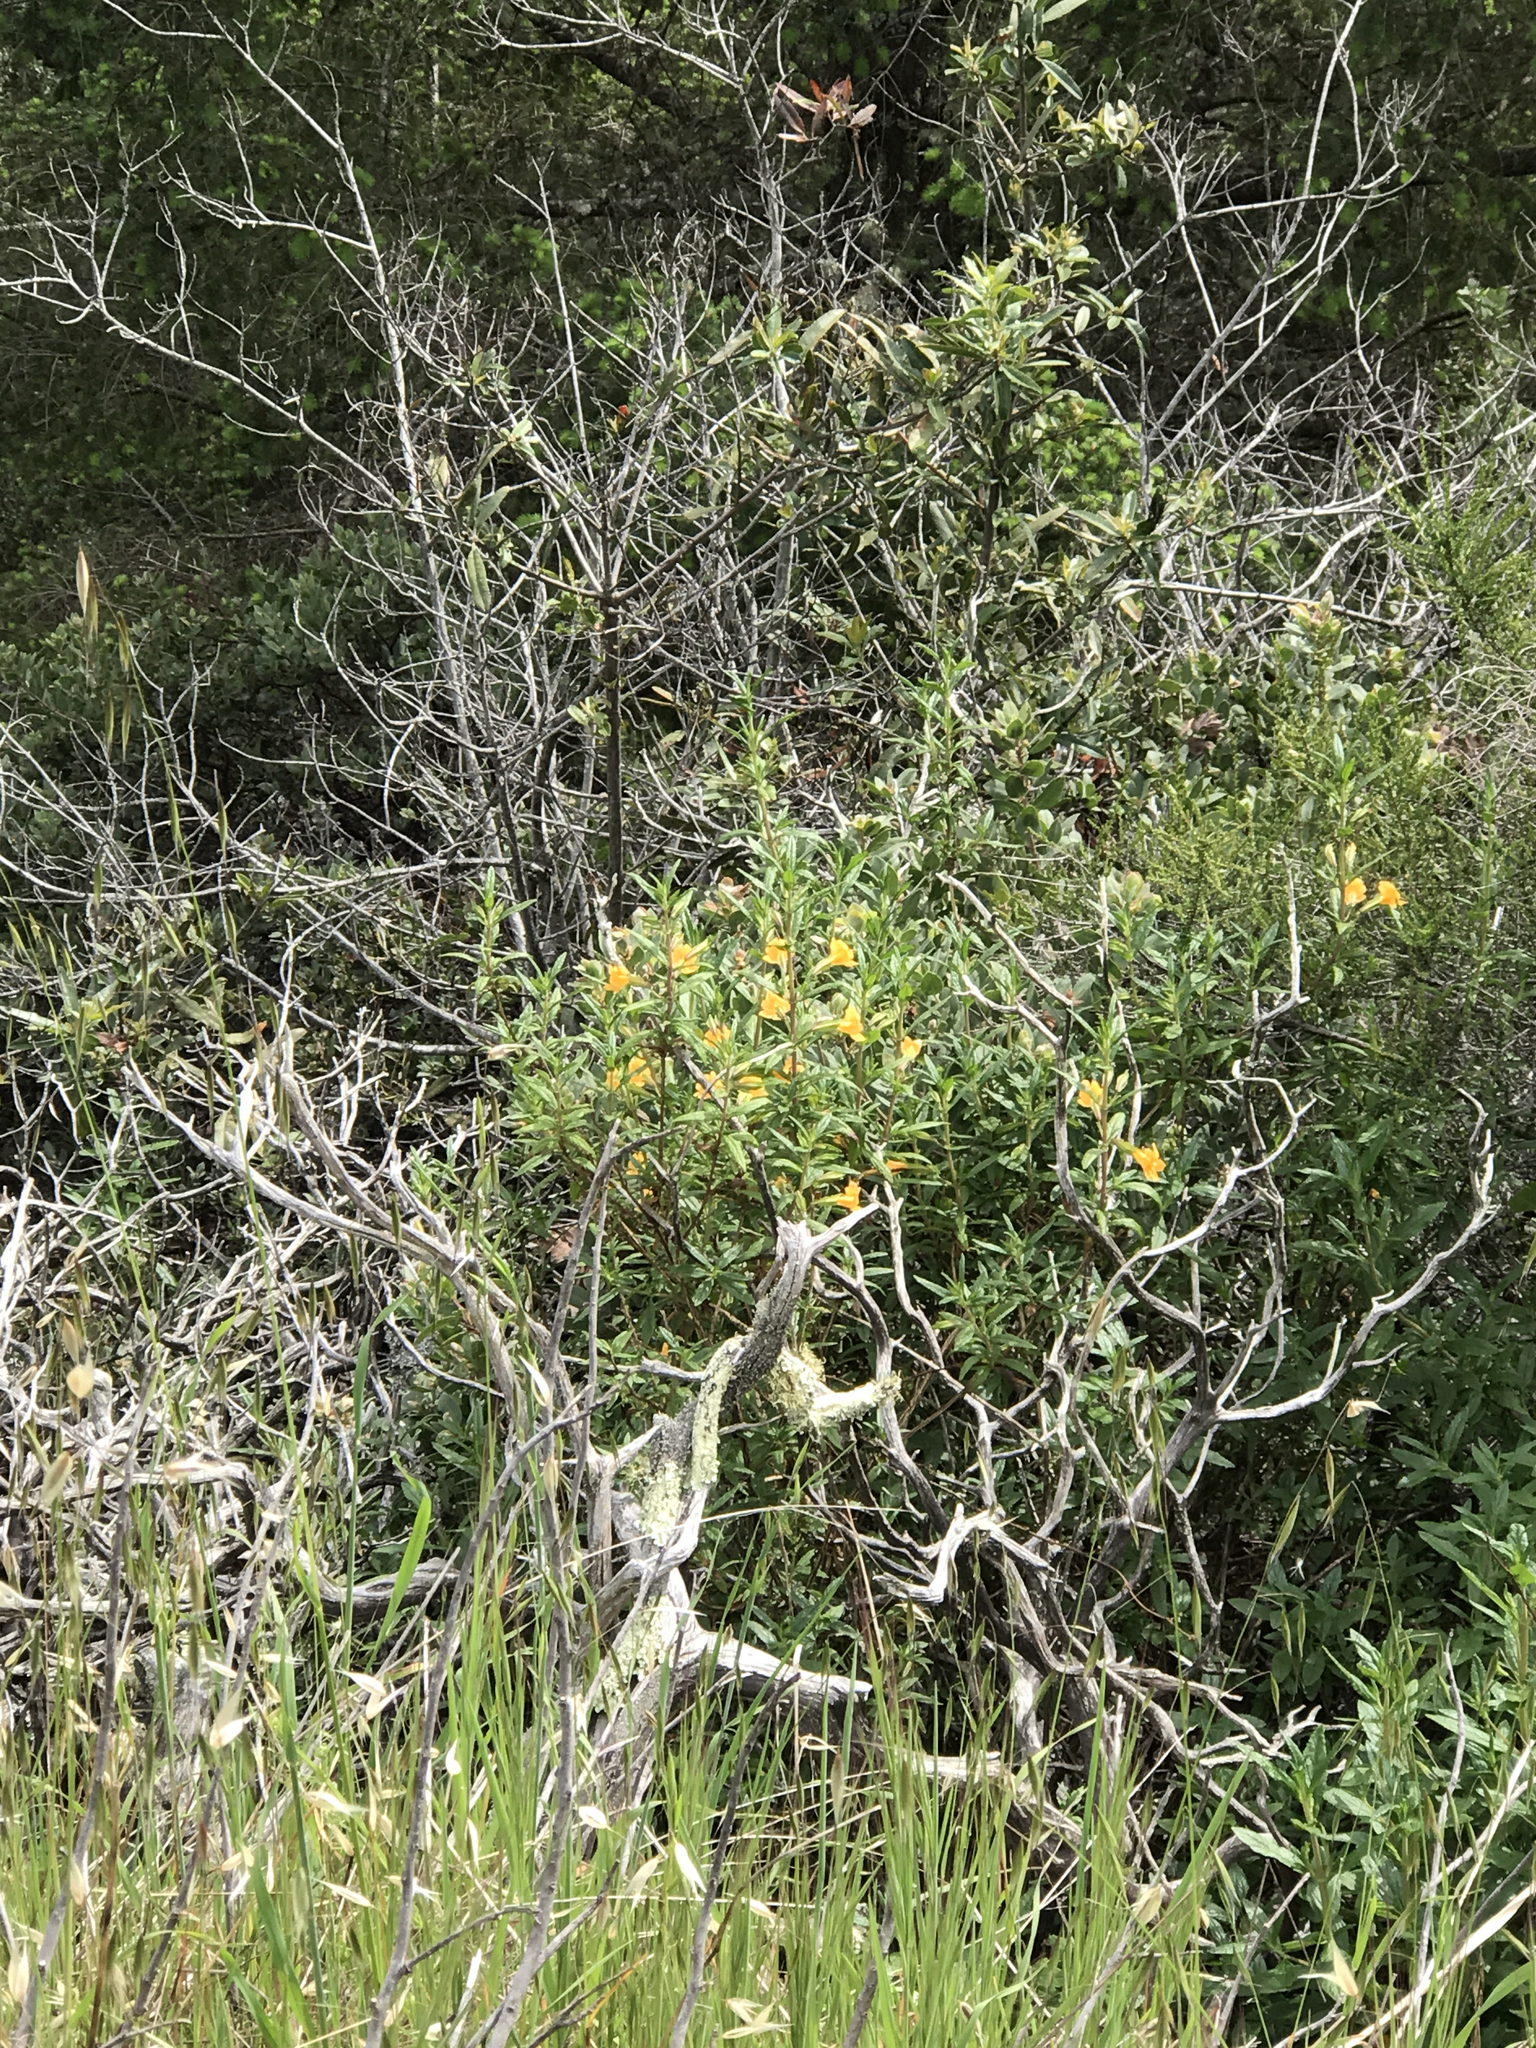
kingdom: Plantae
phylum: Tracheophyta
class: Magnoliopsida
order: Lamiales
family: Phrymaceae
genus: Diplacus
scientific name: Diplacus aurantiacus
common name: Bush monkey-flower
